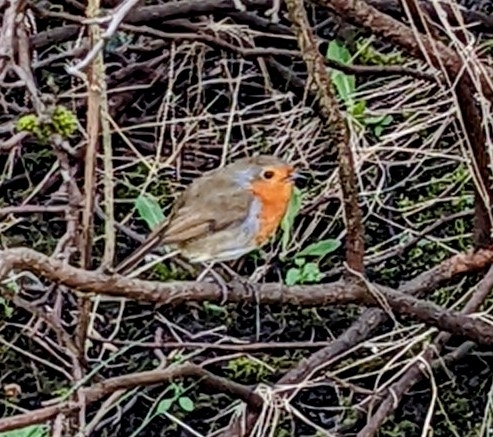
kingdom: Animalia
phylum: Chordata
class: Aves
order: Passeriformes
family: Muscicapidae
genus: Erithacus
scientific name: Erithacus rubecula
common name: European robin
